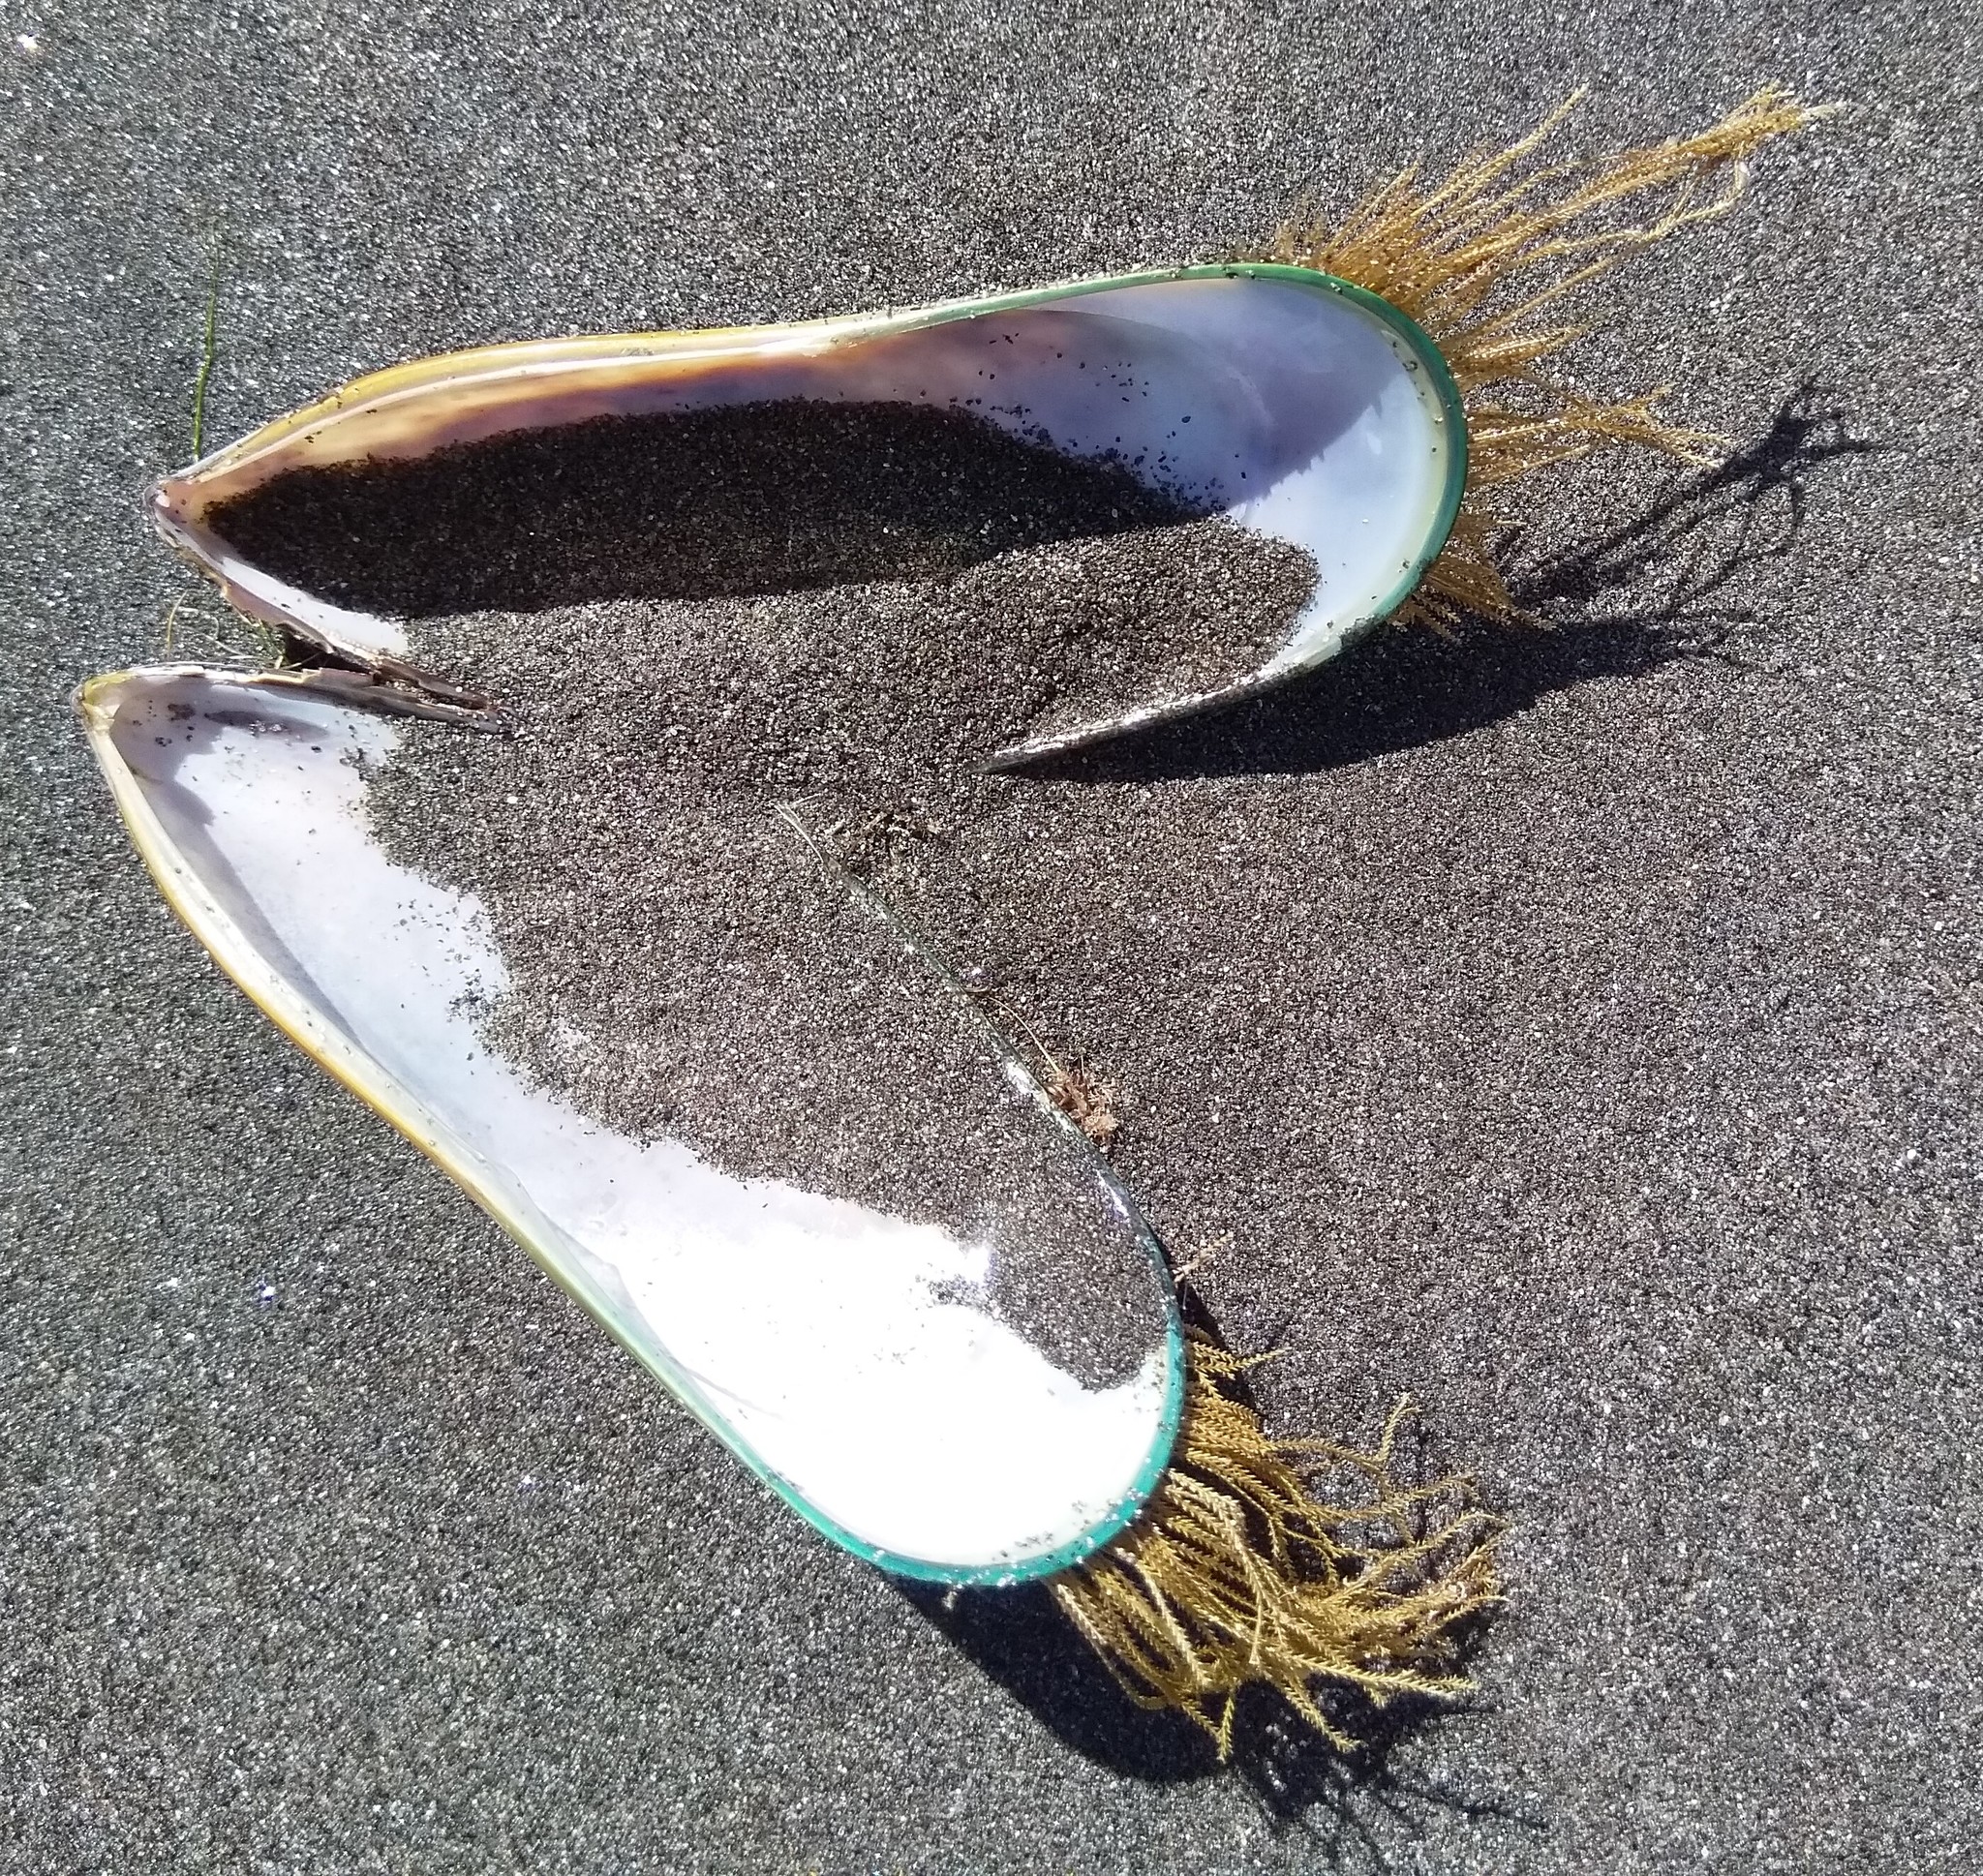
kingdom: Animalia
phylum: Mollusca
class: Bivalvia
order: Mytilida
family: Mytilidae
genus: Perna
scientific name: Perna canaliculus
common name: New zealand greenshelltm
